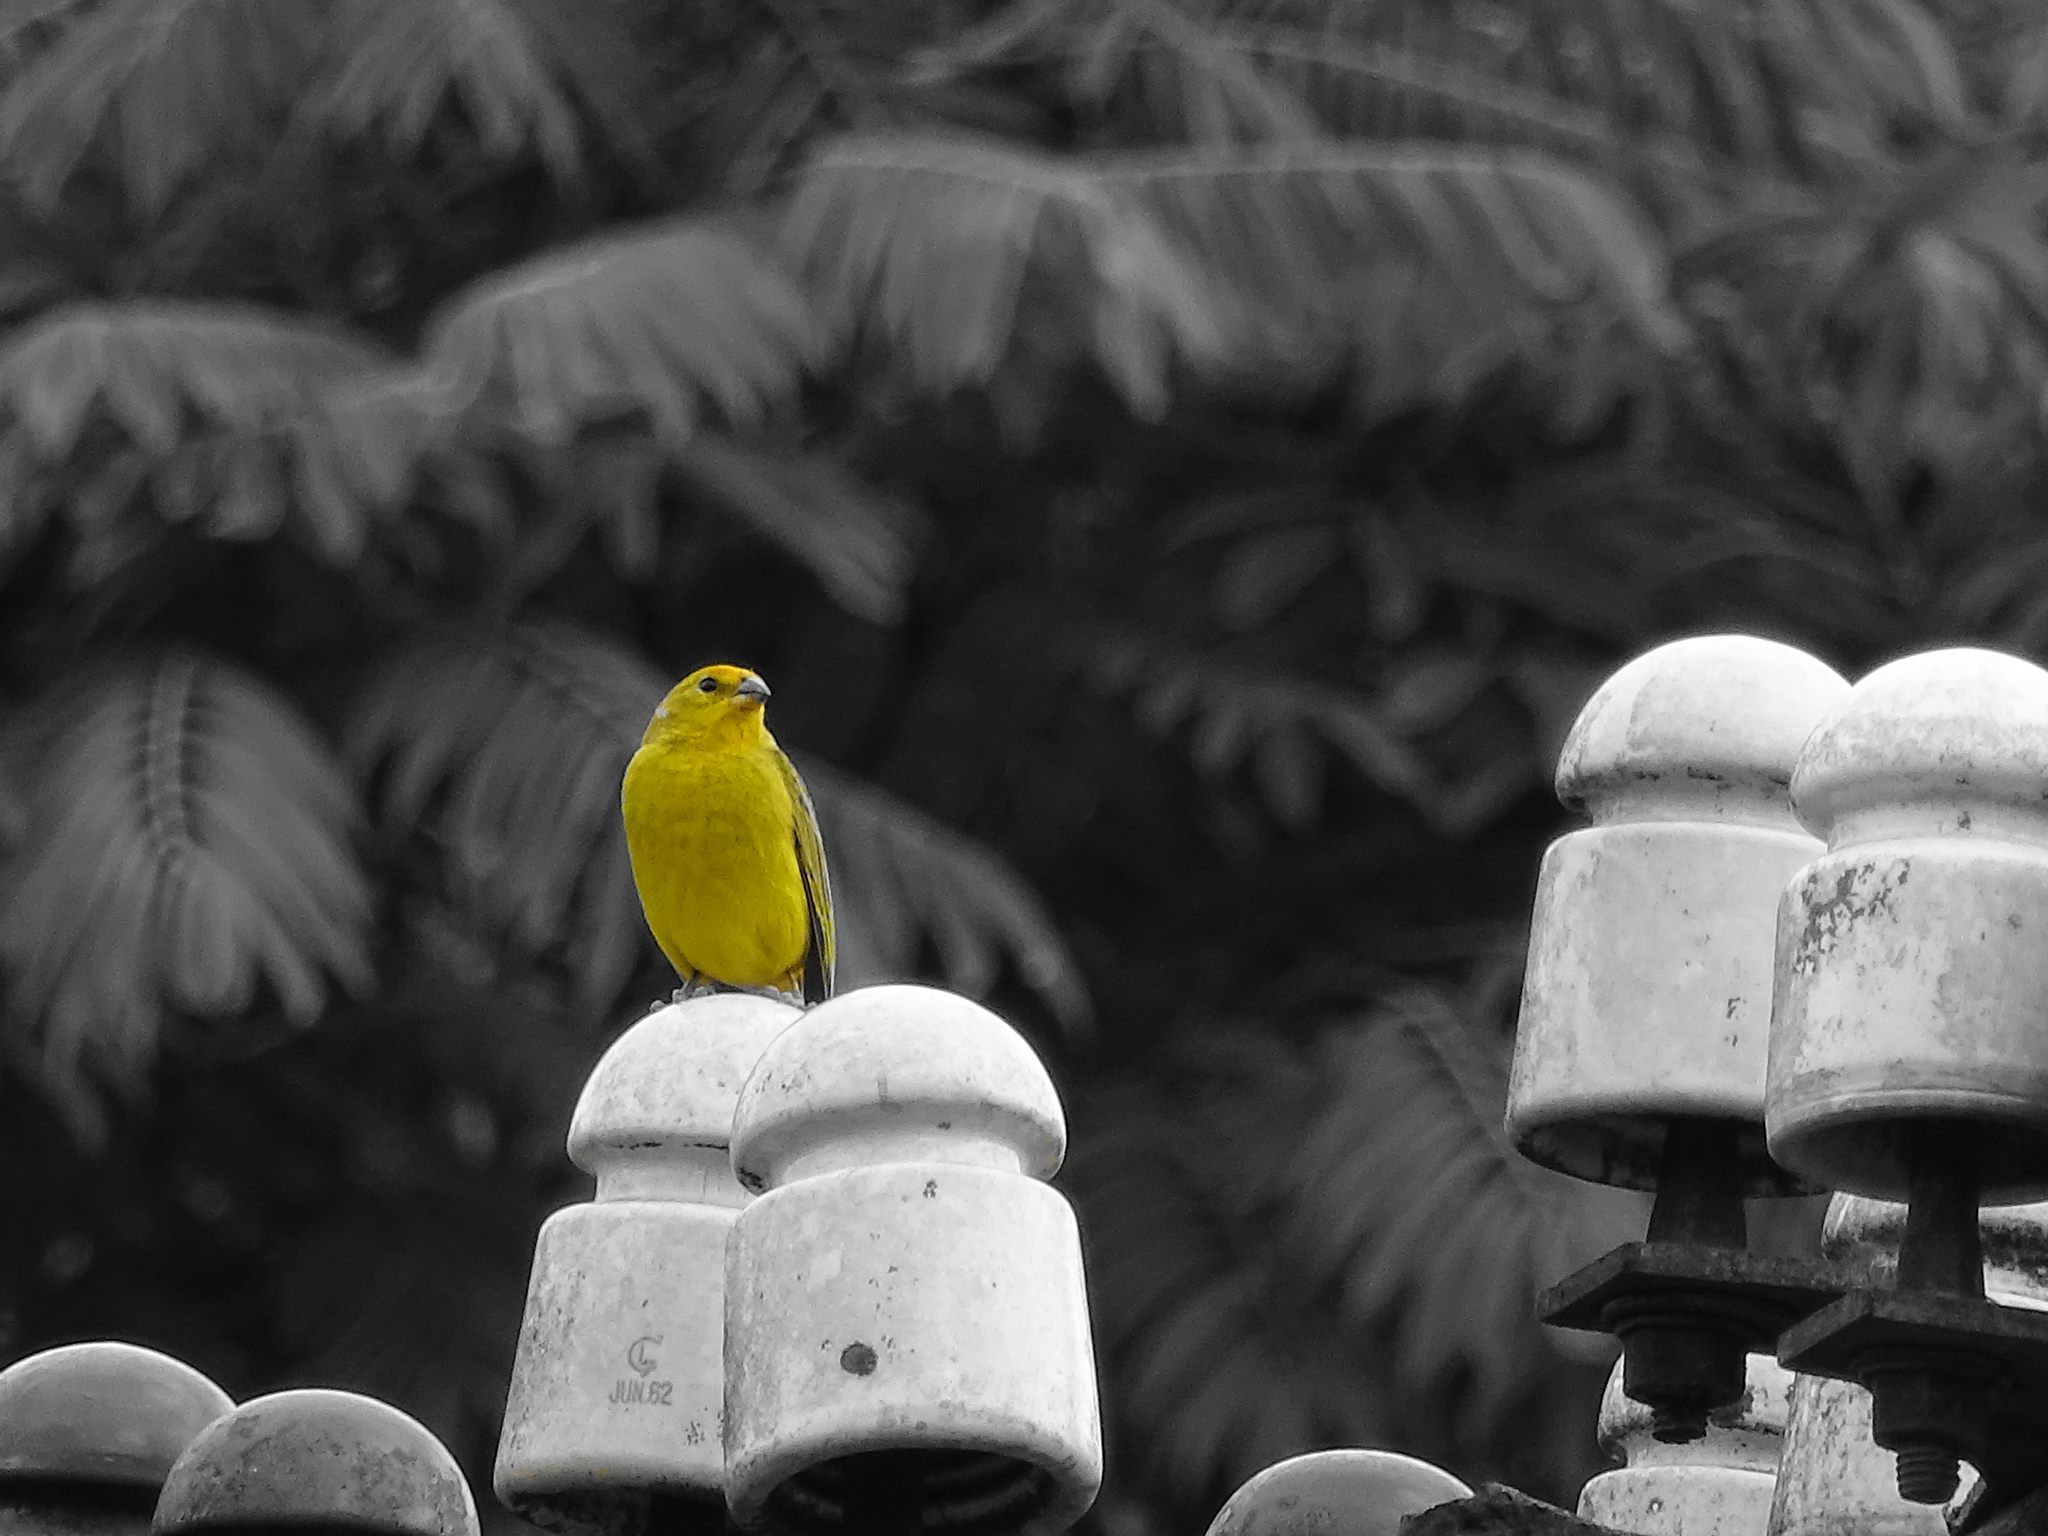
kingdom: Animalia
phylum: Chordata
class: Aves
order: Passeriformes
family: Thraupidae
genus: Sicalis
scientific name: Sicalis flaveola
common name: Saffron finch
